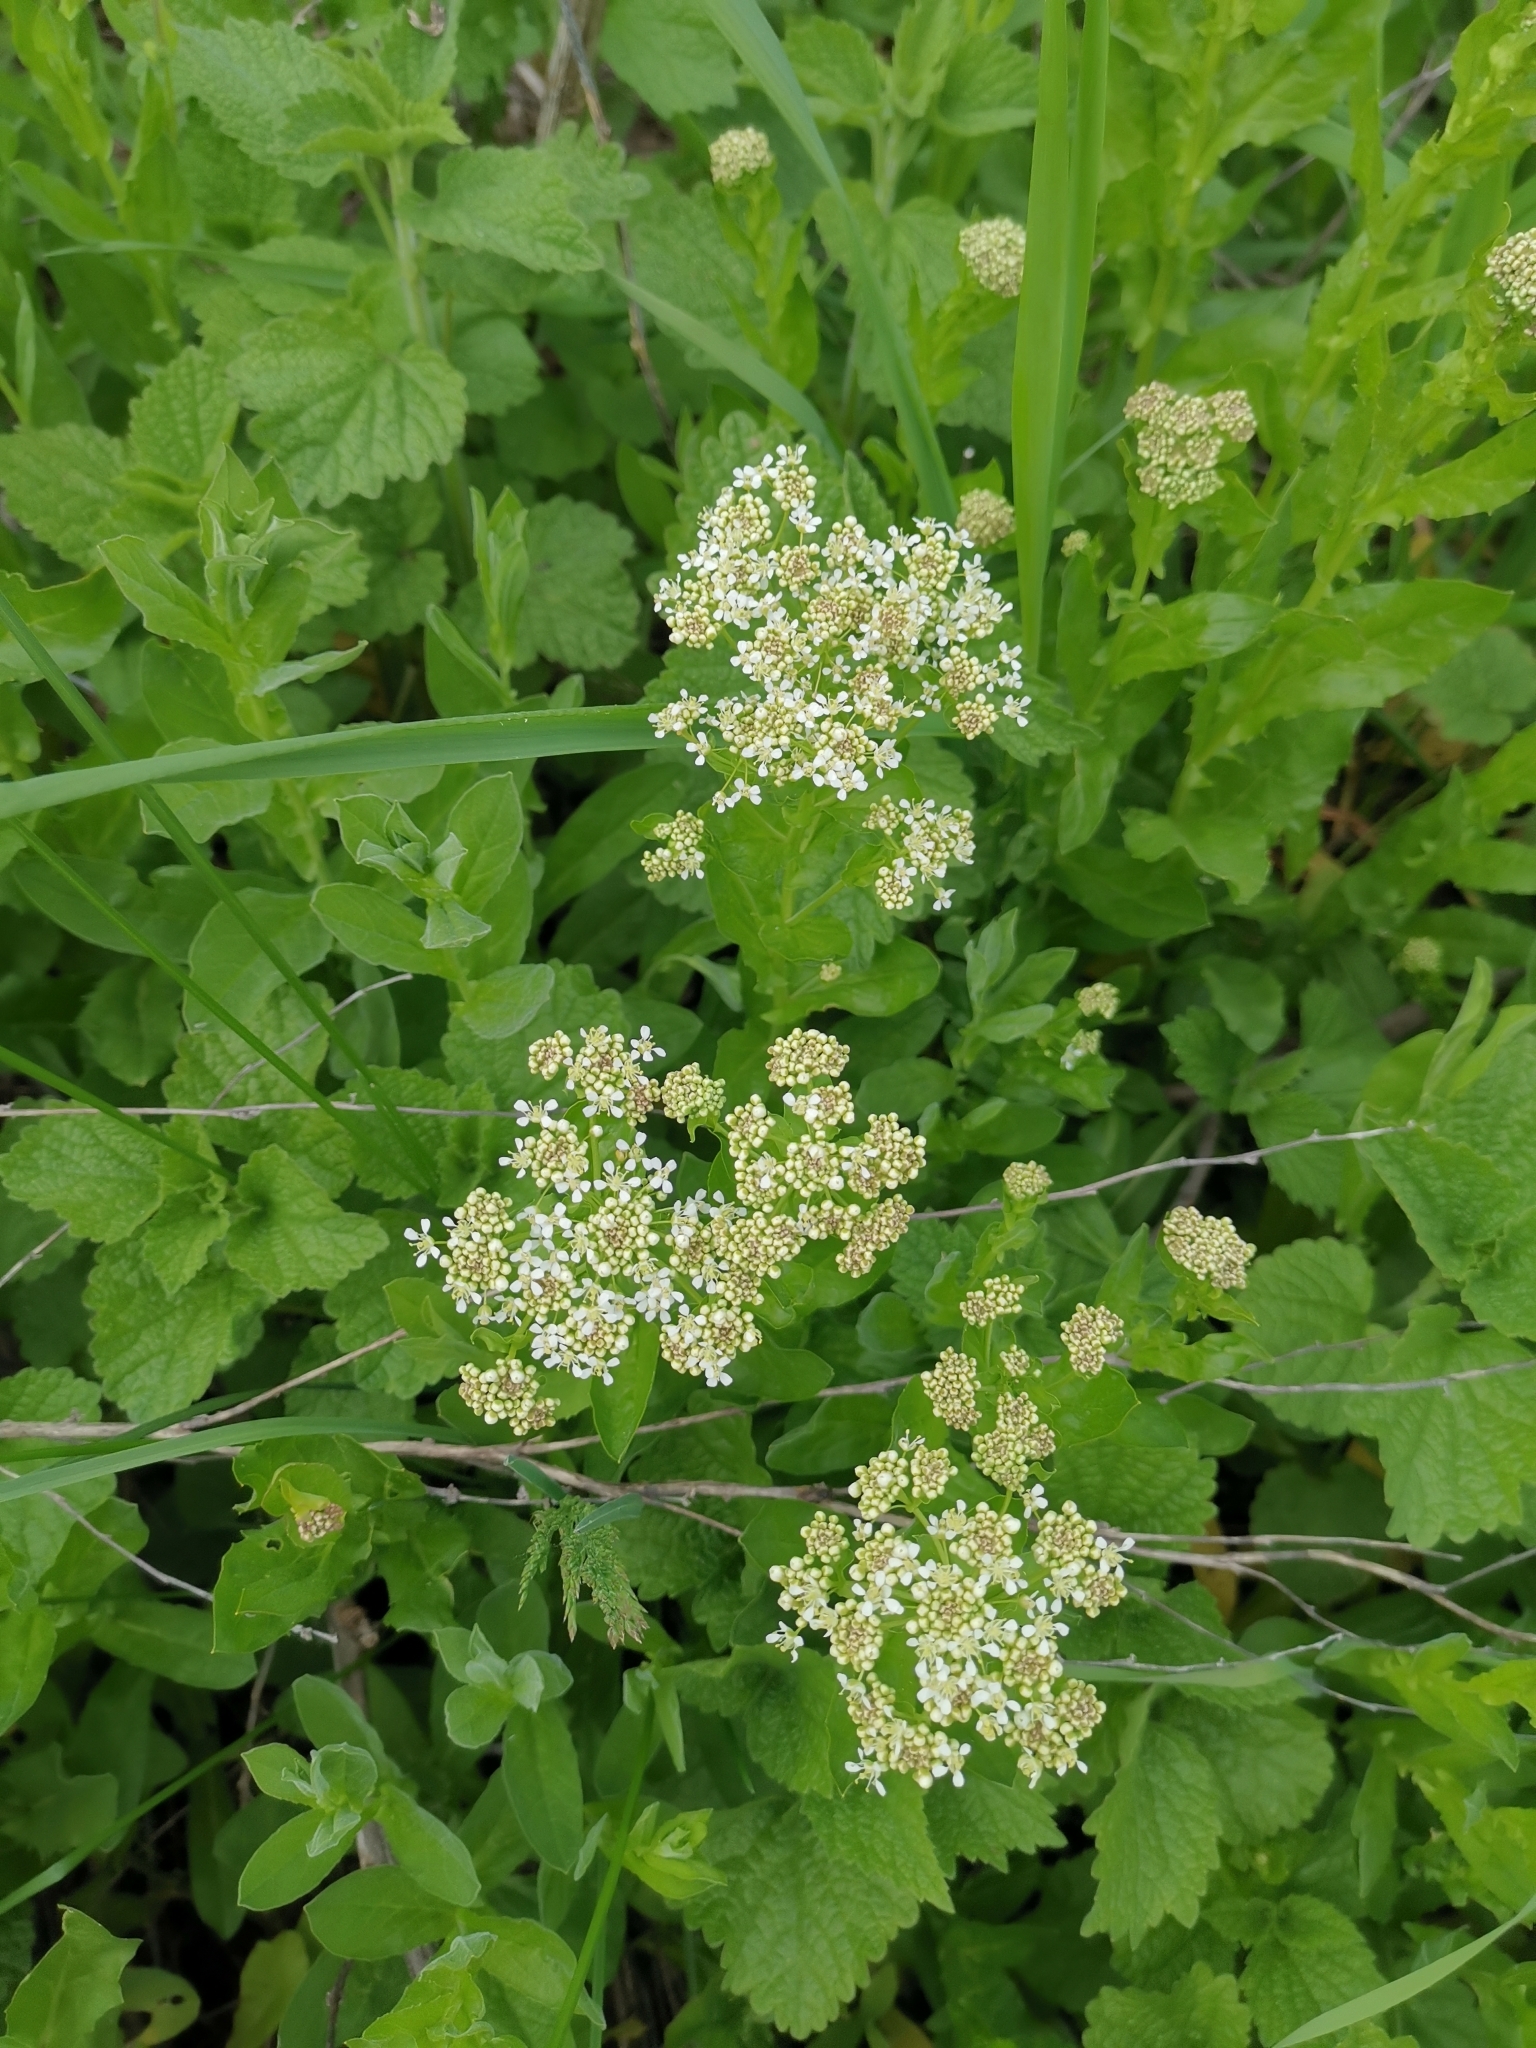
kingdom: Plantae
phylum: Tracheophyta
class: Magnoliopsida
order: Brassicales
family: Brassicaceae
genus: Lepidium
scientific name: Lepidium draba
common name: Hoary cress
